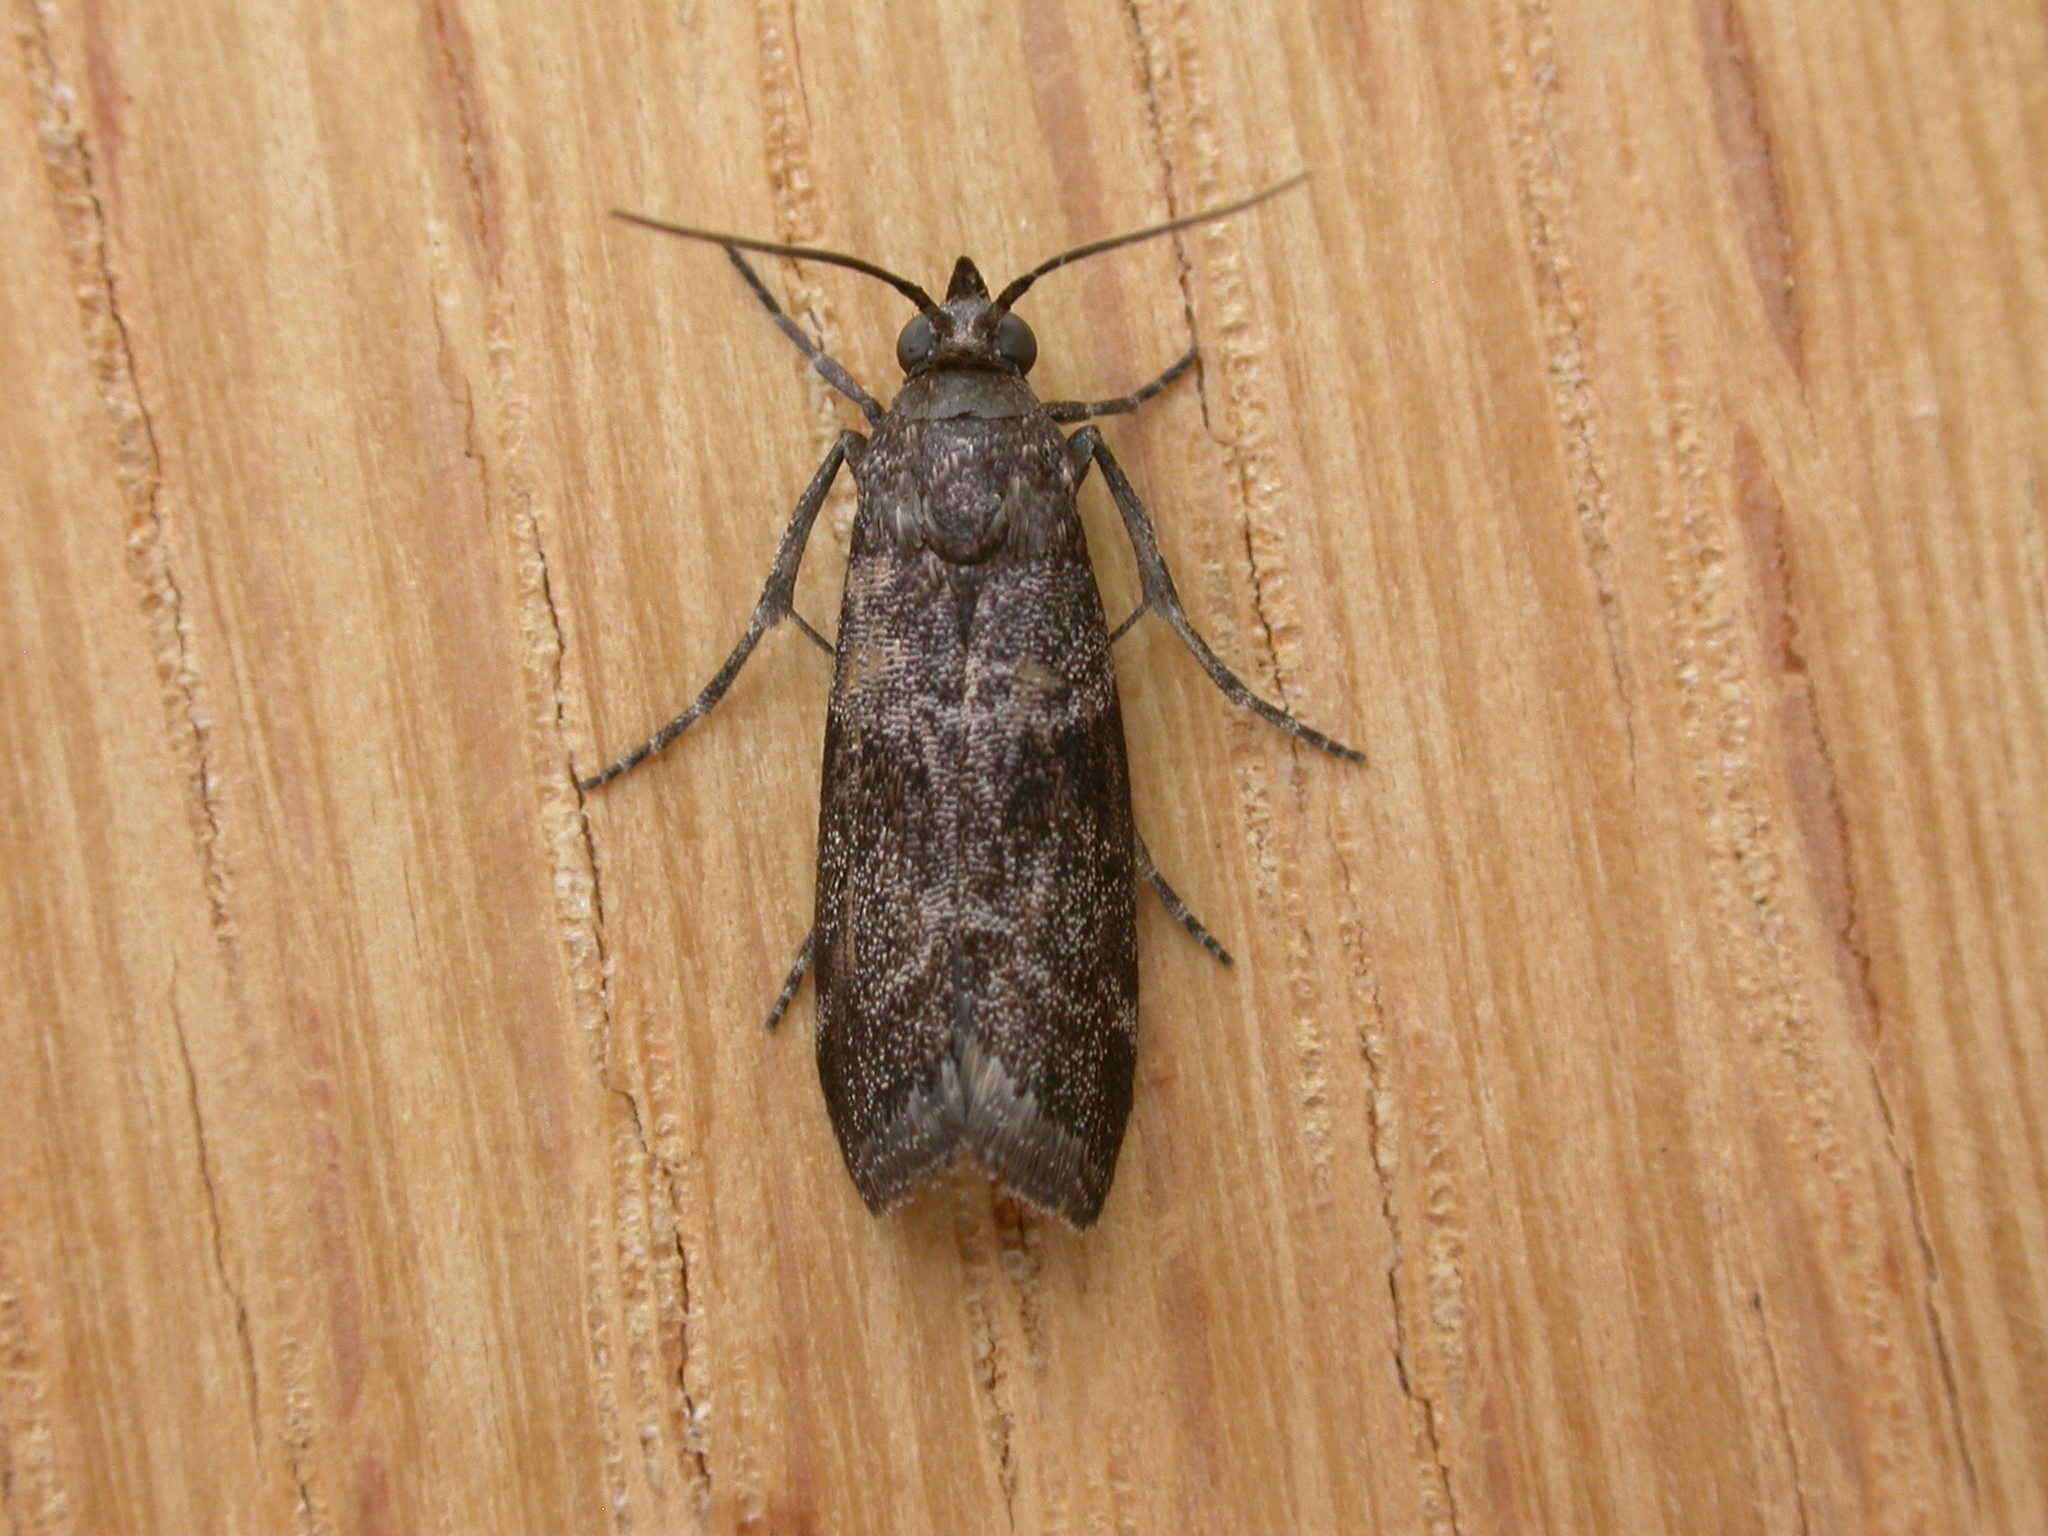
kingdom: Animalia
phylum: Arthropoda
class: Insecta
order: Lepidoptera
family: Pyralidae
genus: Lasiosticha
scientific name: Lasiosticha opimella
